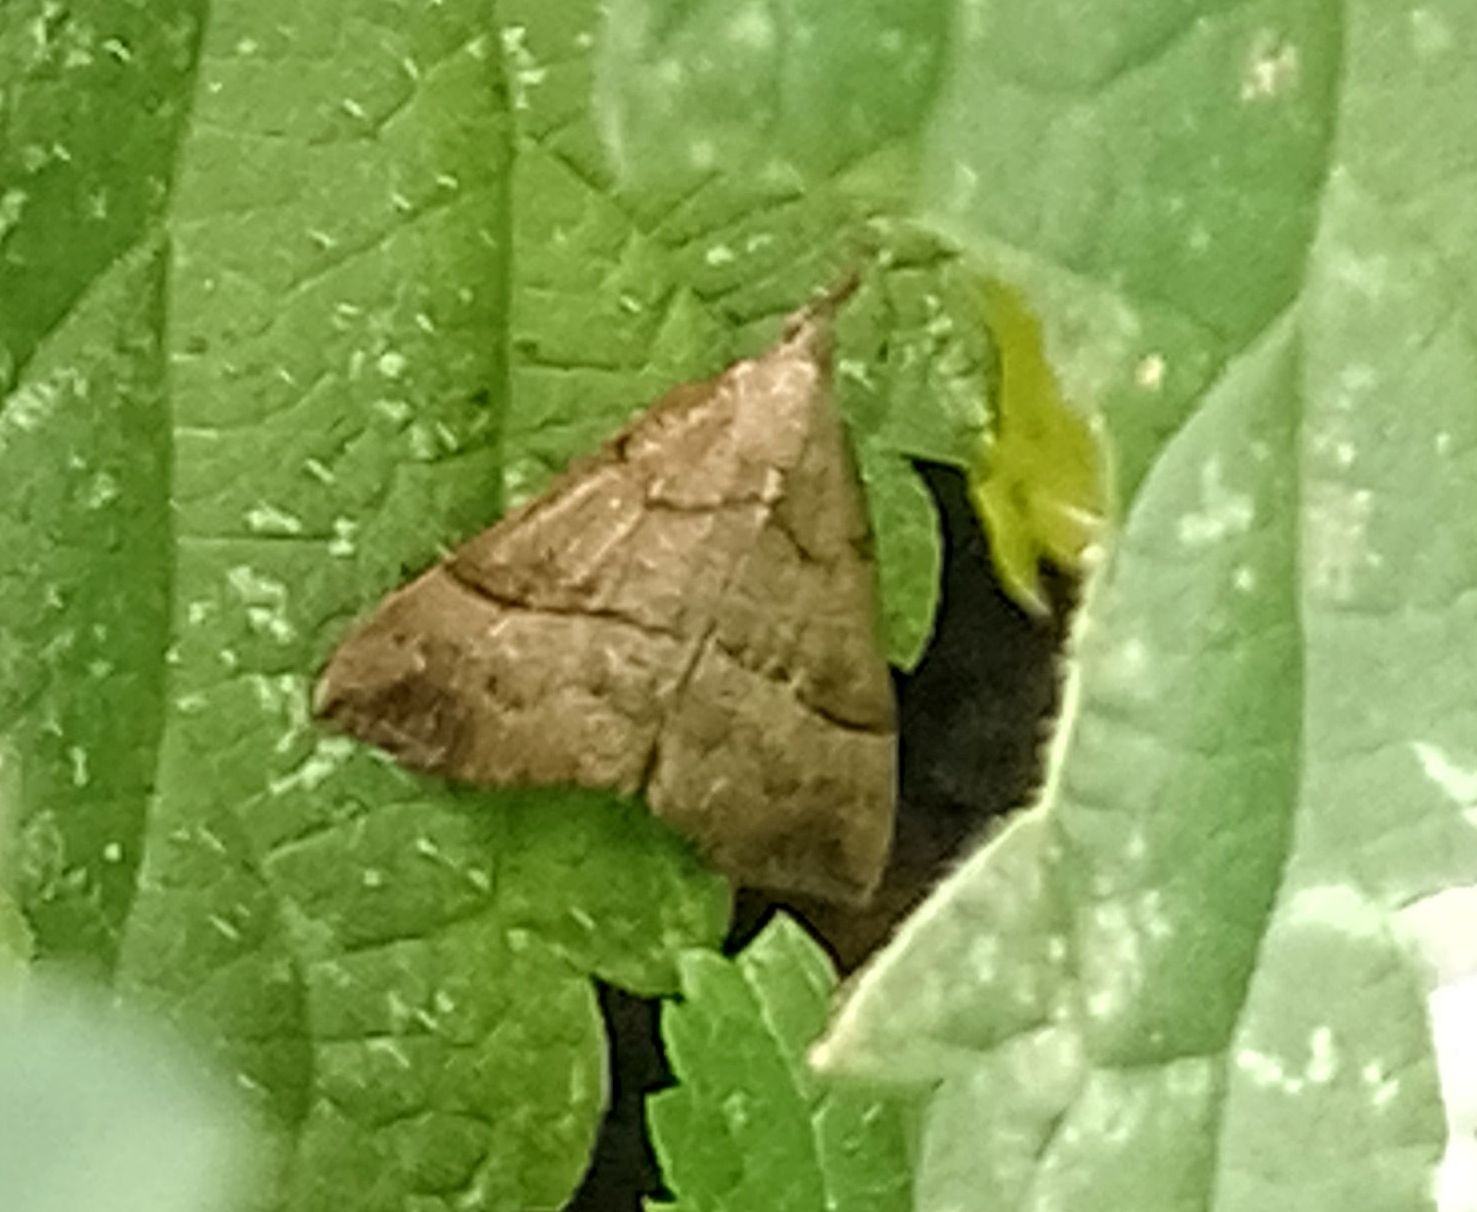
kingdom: Animalia
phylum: Arthropoda
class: Insecta
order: Lepidoptera
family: Erebidae
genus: Hypena
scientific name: Hypena proboscidalis
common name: Snout
